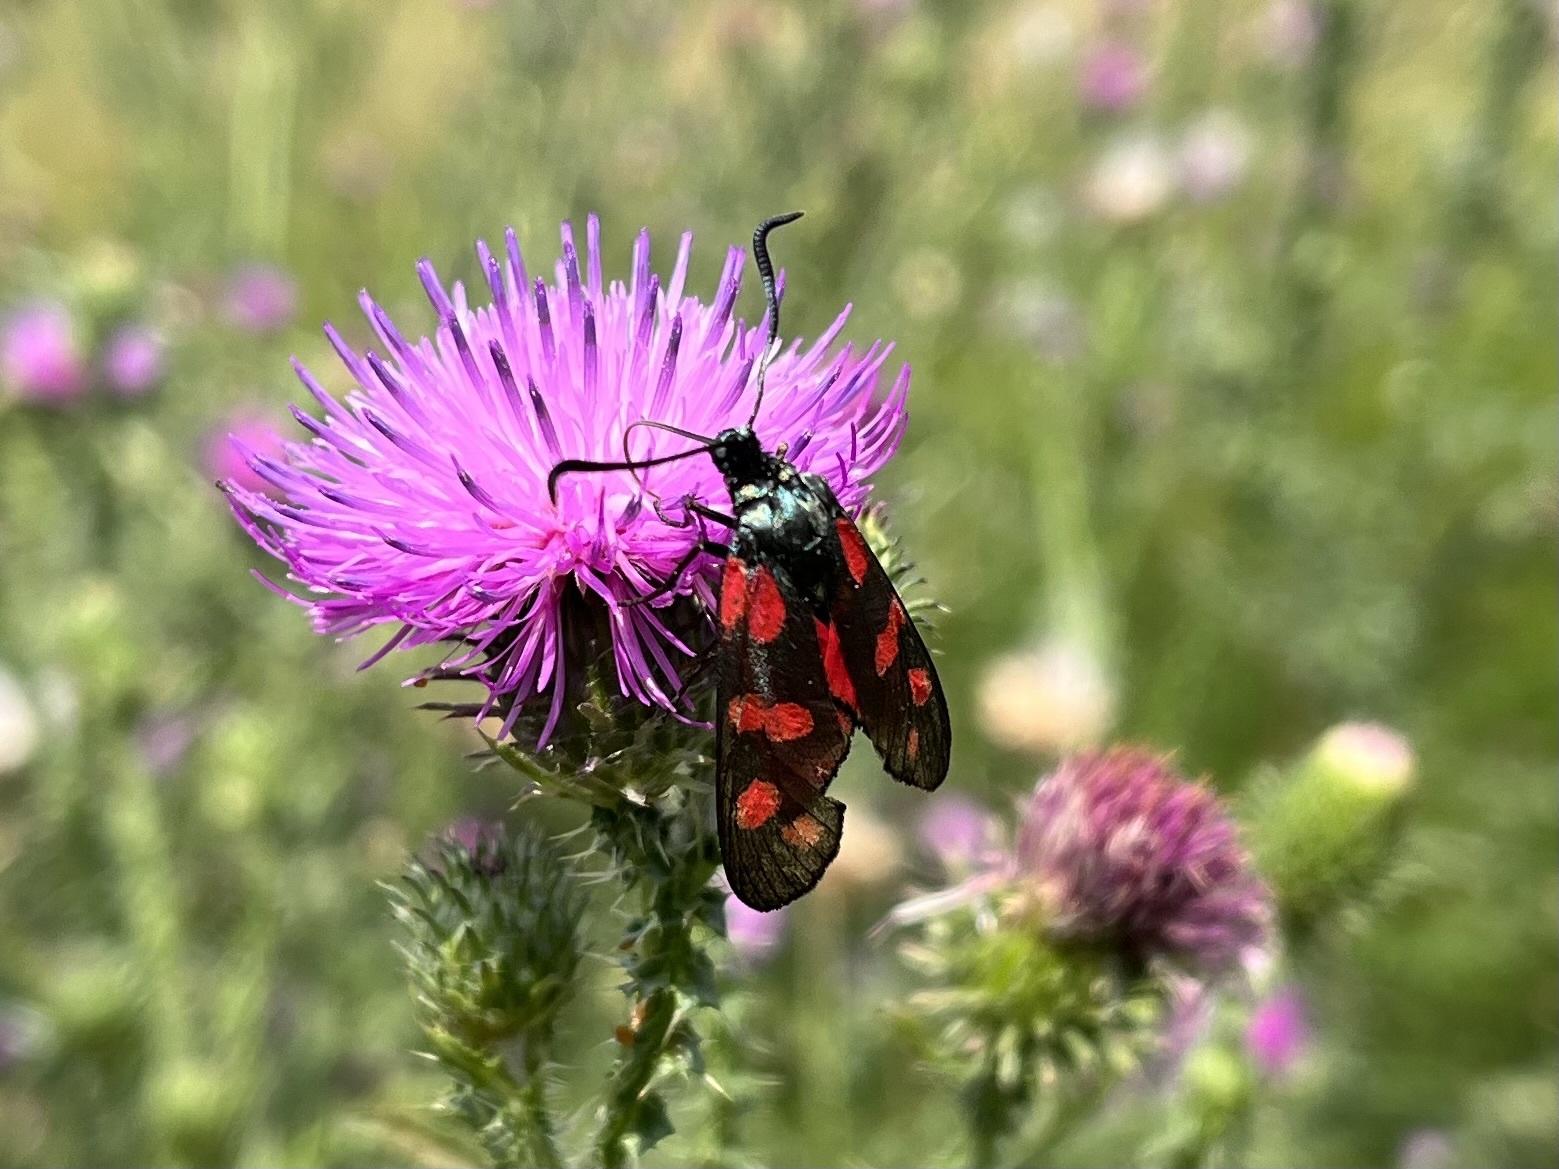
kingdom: Animalia
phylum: Arthropoda
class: Insecta
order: Lepidoptera
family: Zygaenidae
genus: Zygaena
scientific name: Zygaena filipendulae
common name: Six-spot burnet
